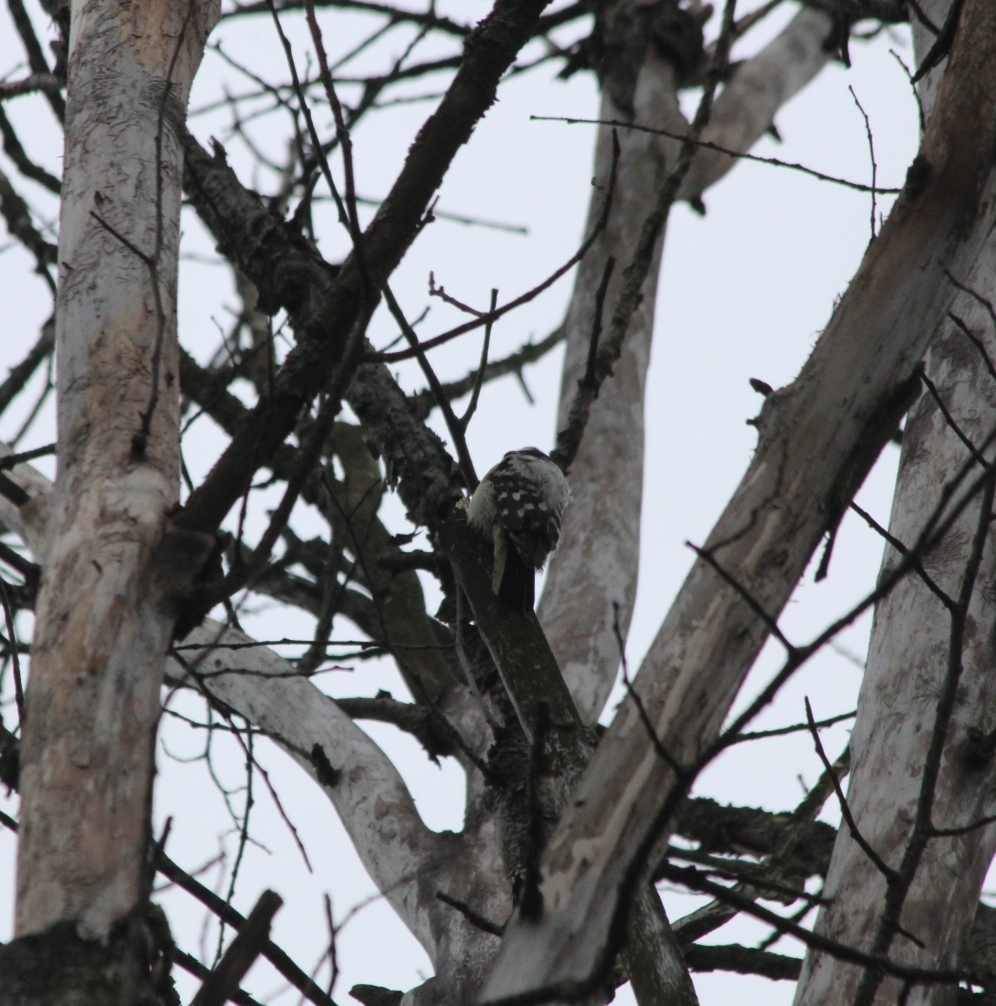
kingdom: Animalia
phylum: Chordata
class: Aves
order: Piciformes
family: Picidae
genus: Dryobates
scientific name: Dryobates minor
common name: Lesser spotted woodpecker
